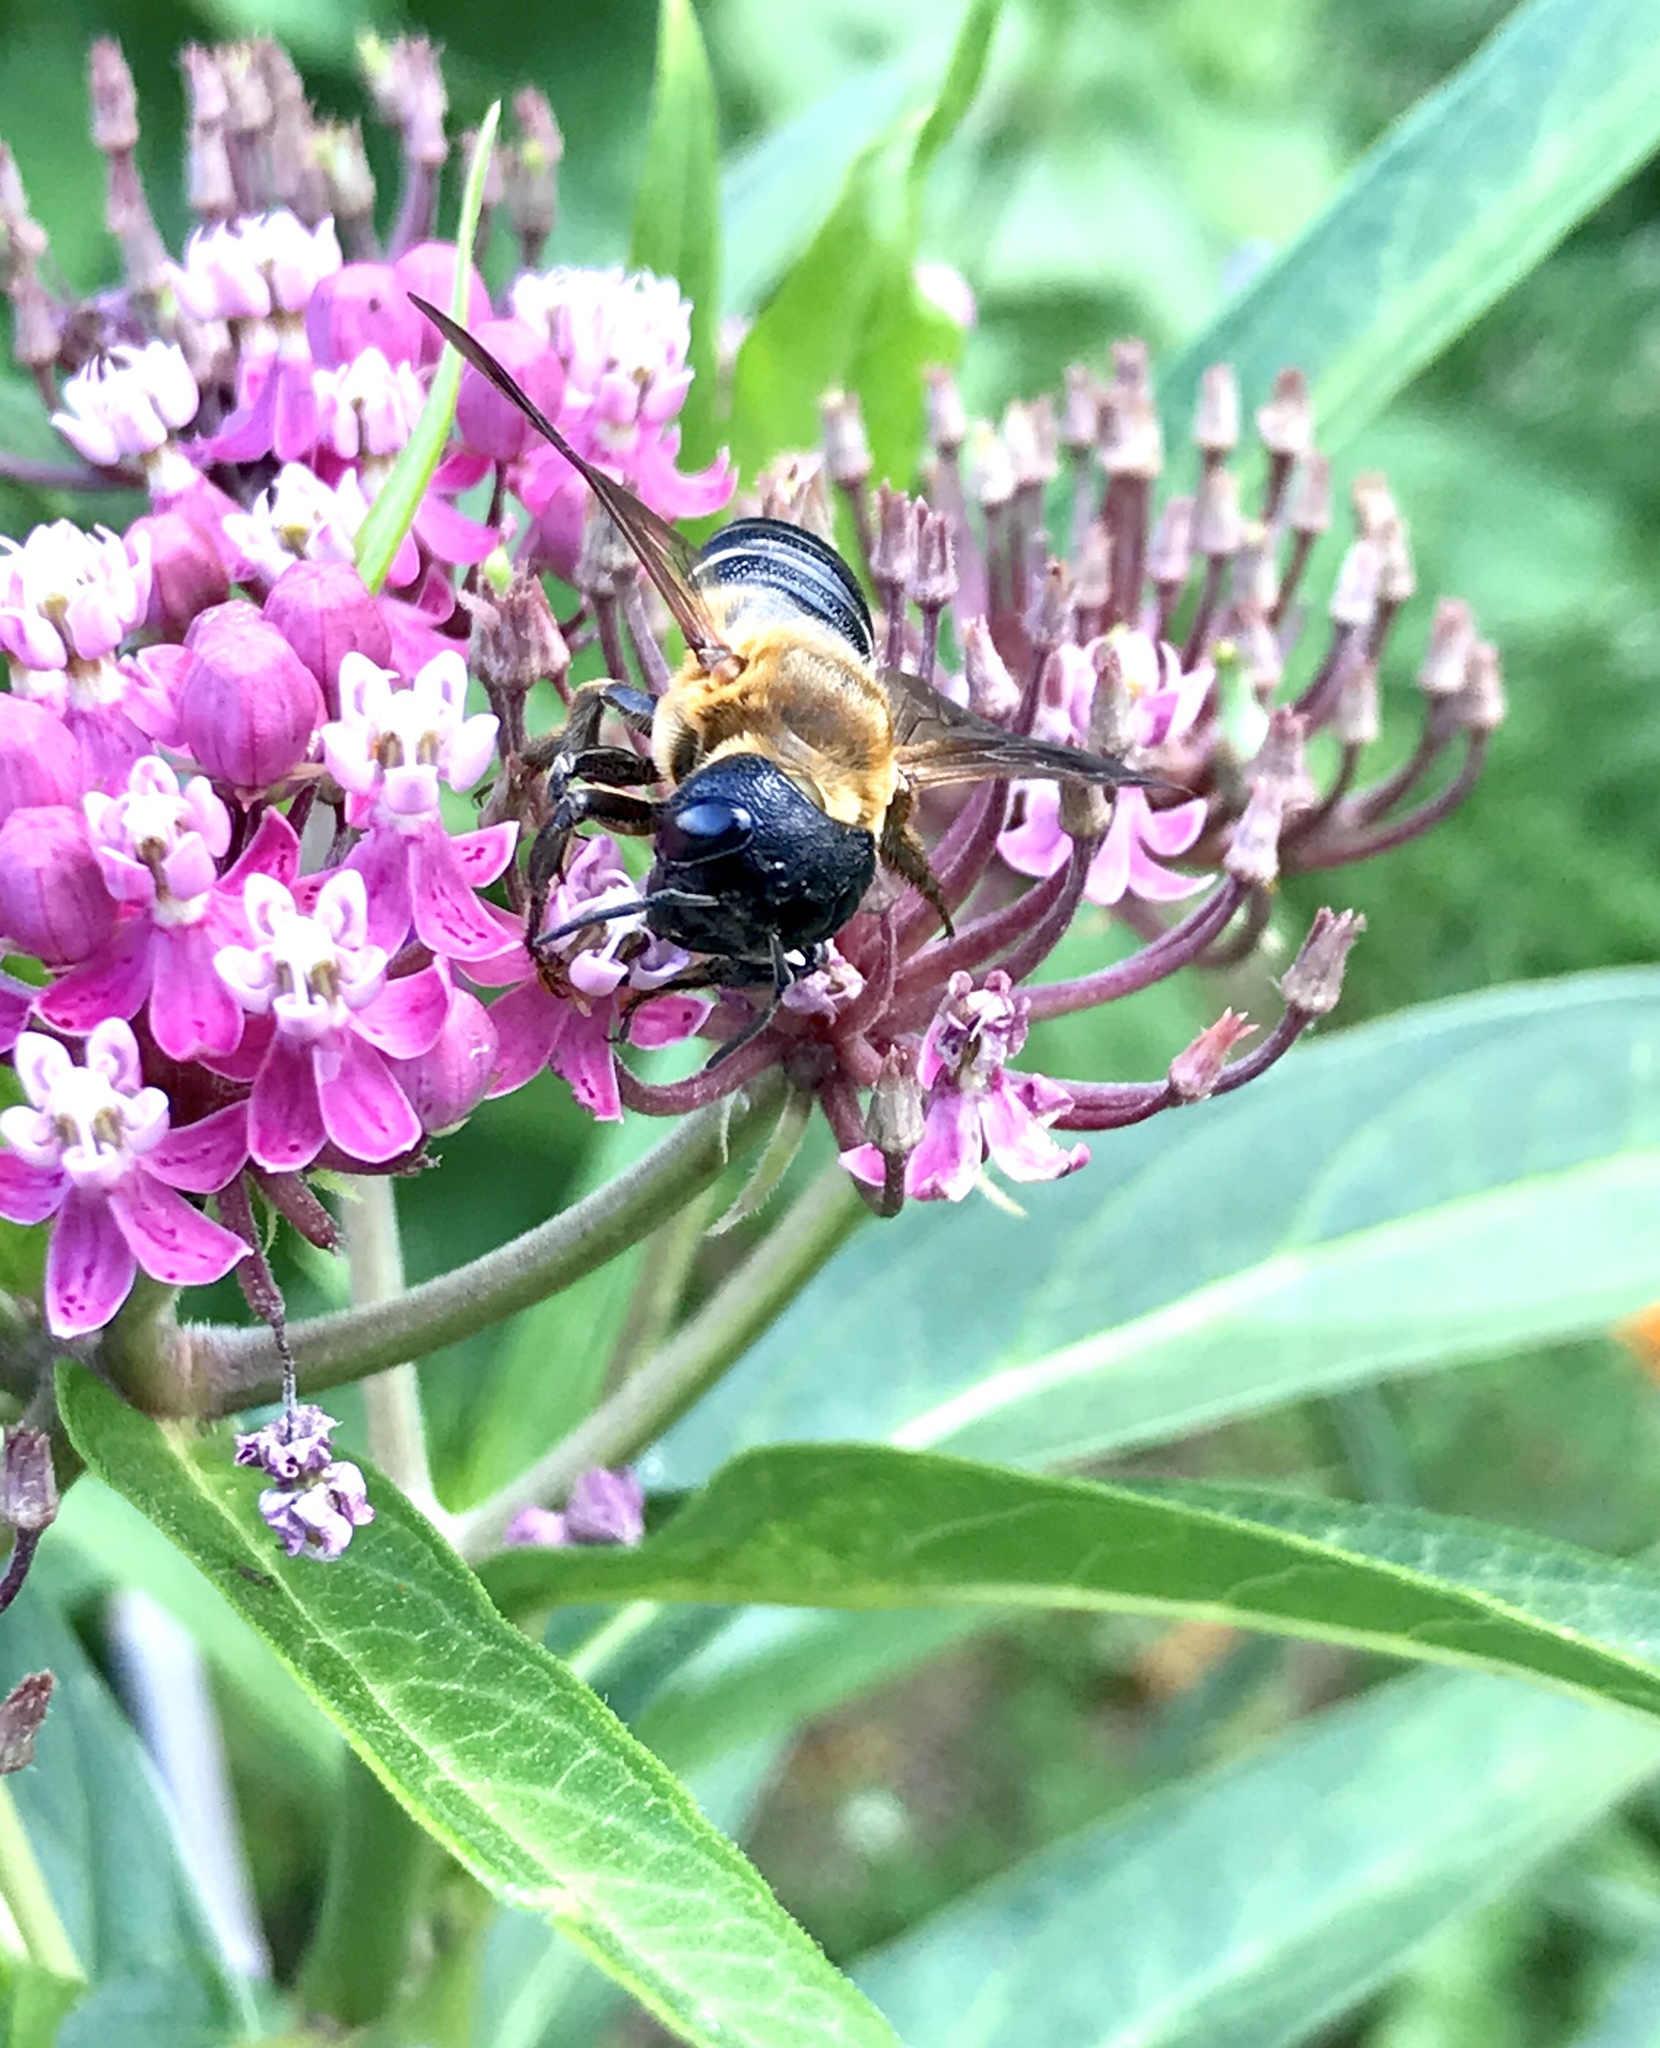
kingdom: Animalia
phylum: Arthropoda
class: Insecta
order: Hymenoptera
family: Megachilidae
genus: Megachile
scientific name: Megachile sculpturalis
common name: Sculptured resin bee
